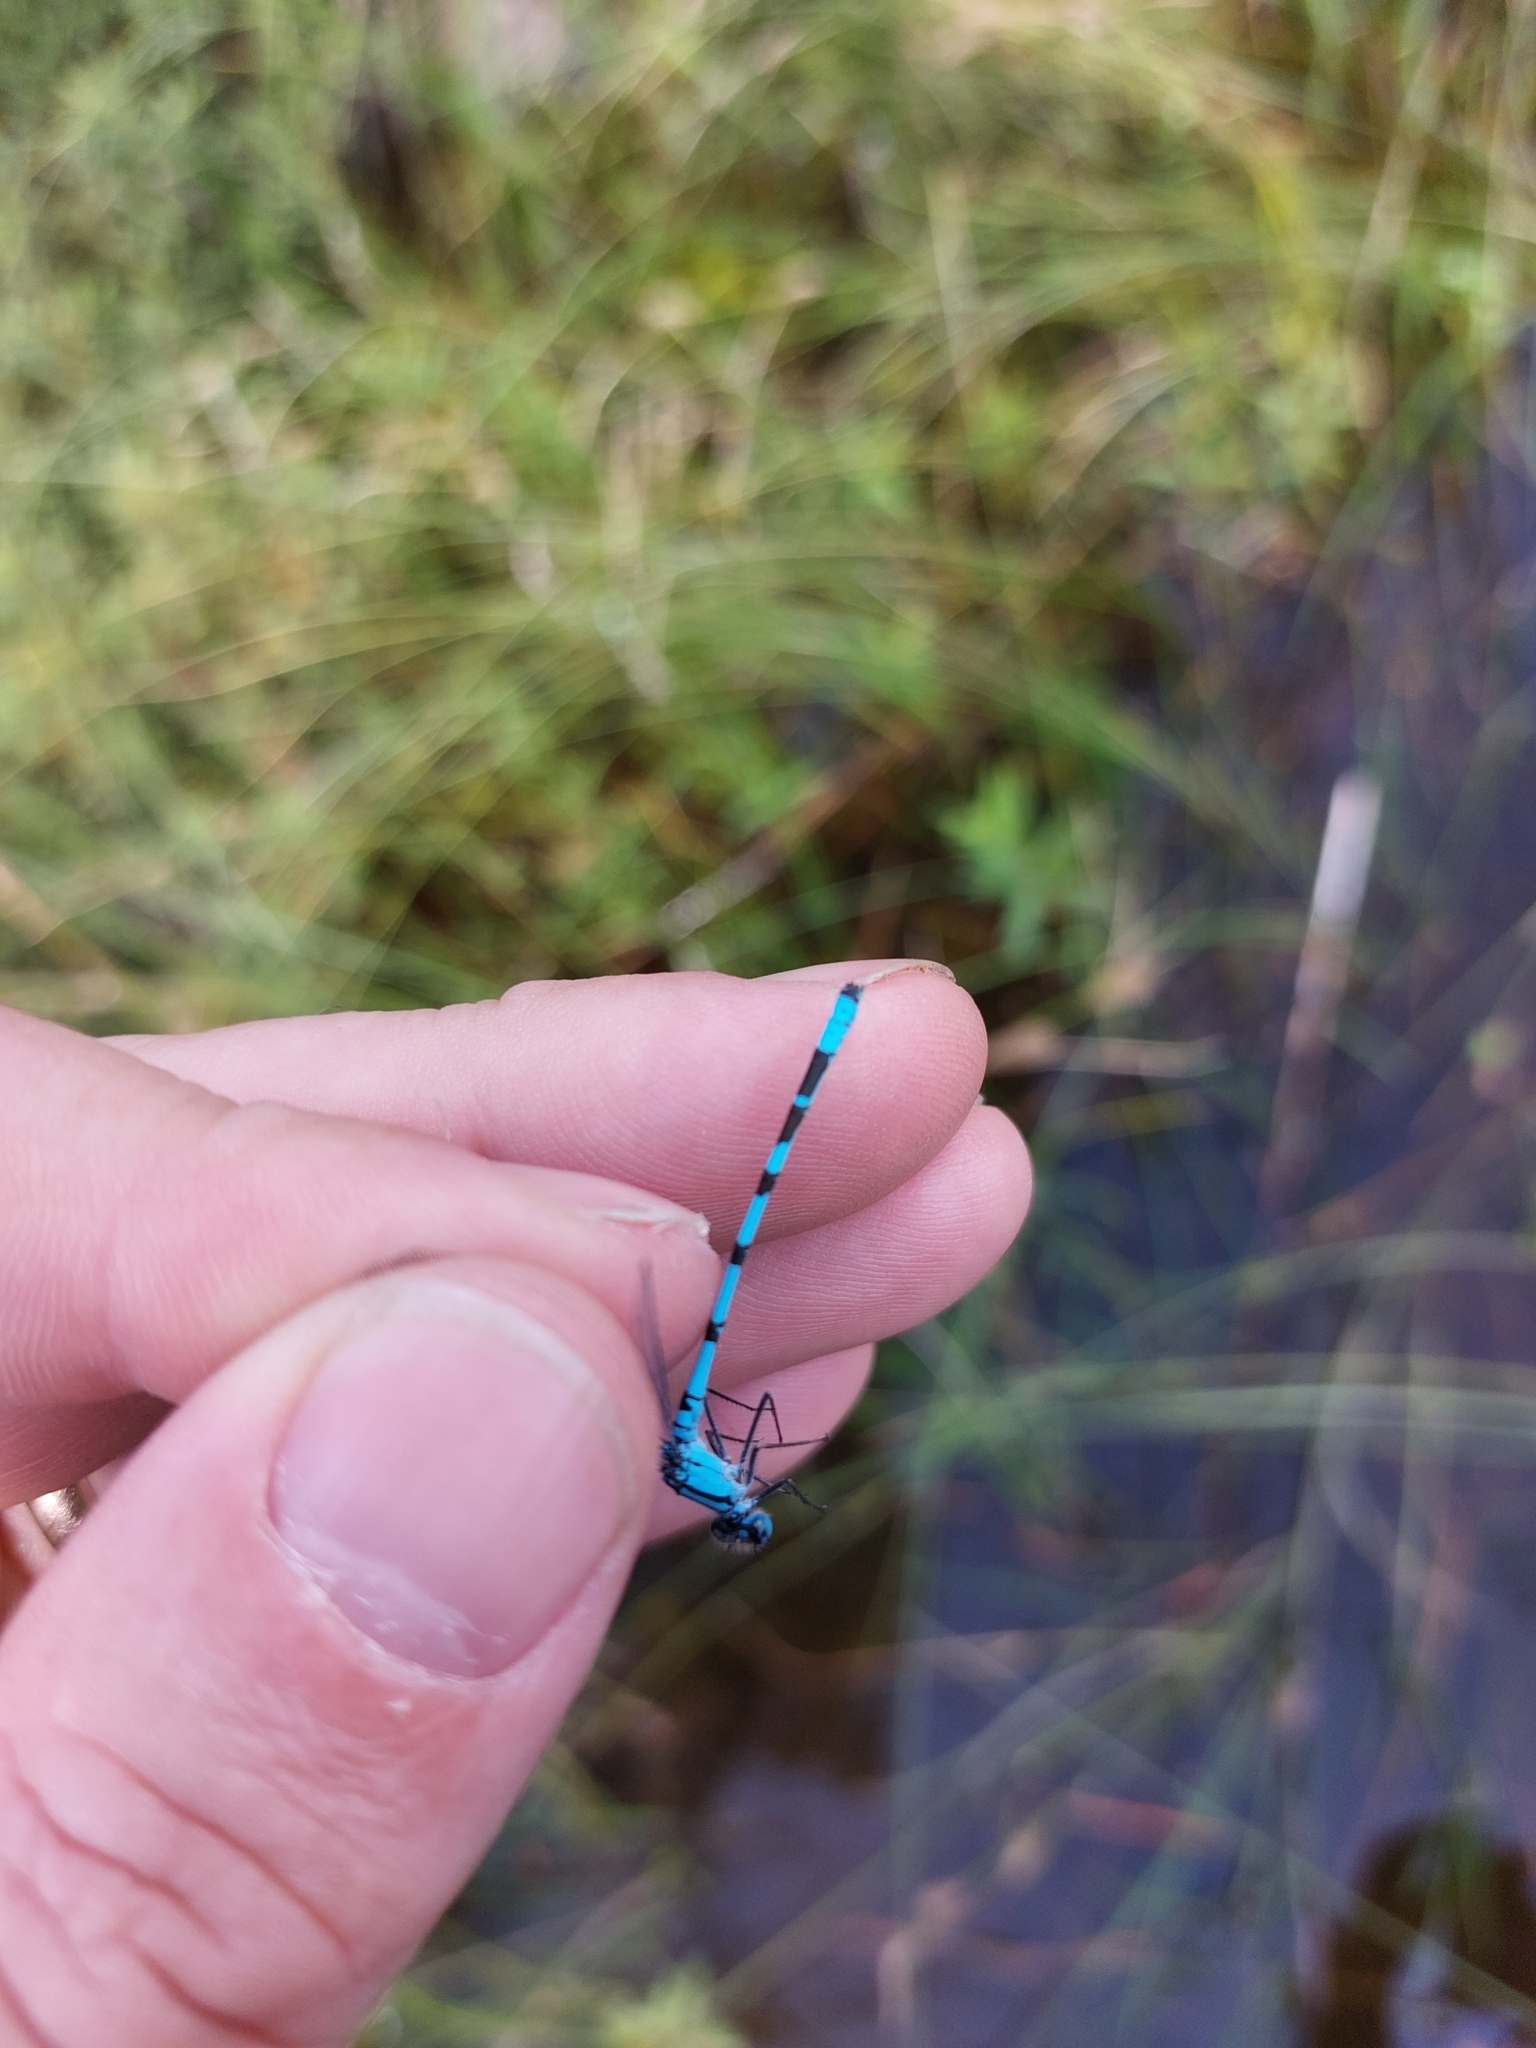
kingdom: Animalia
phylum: Arthropoda
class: Insecta
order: Odonata
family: Coenagrionidae
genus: Enallagma
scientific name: Enallagma cyathigerum
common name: Common blue damselfly
